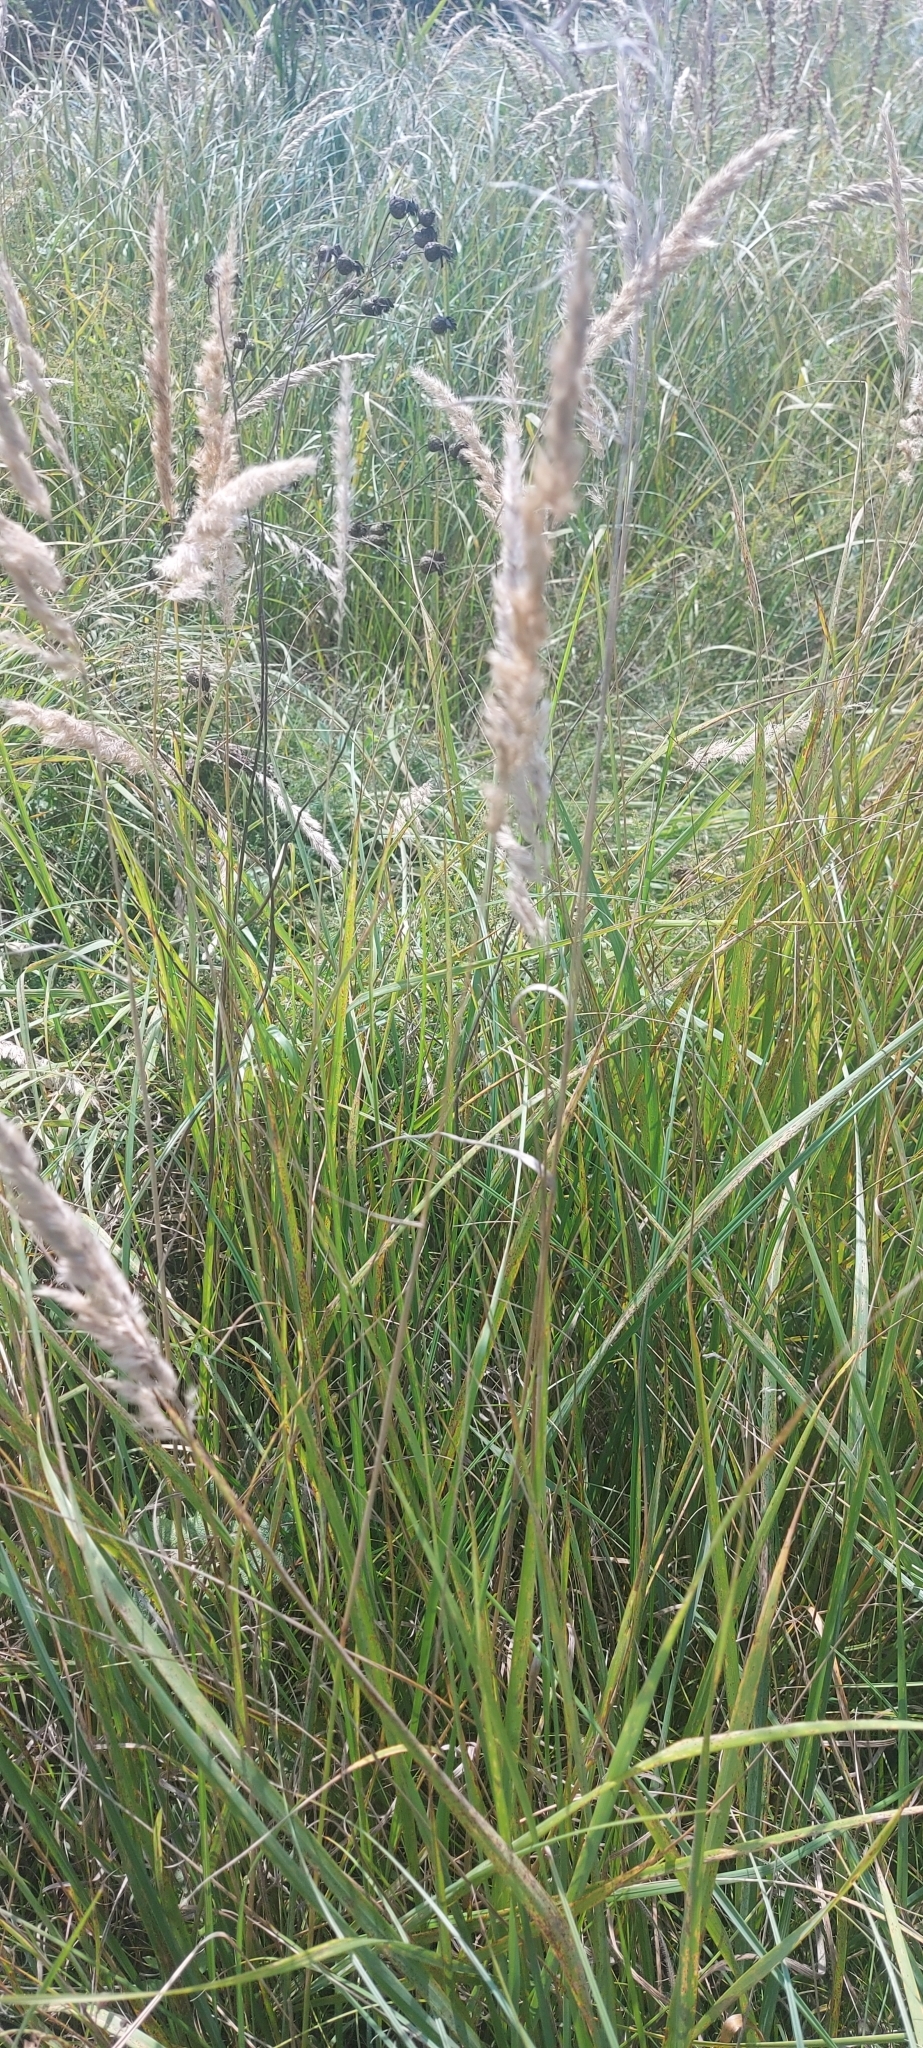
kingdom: Plantae
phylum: Tracheophyta
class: Liliopsida
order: Poales
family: Poaceae
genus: Calamagrostis
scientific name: Calamagrostis epigejos
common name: Wood small-reed
